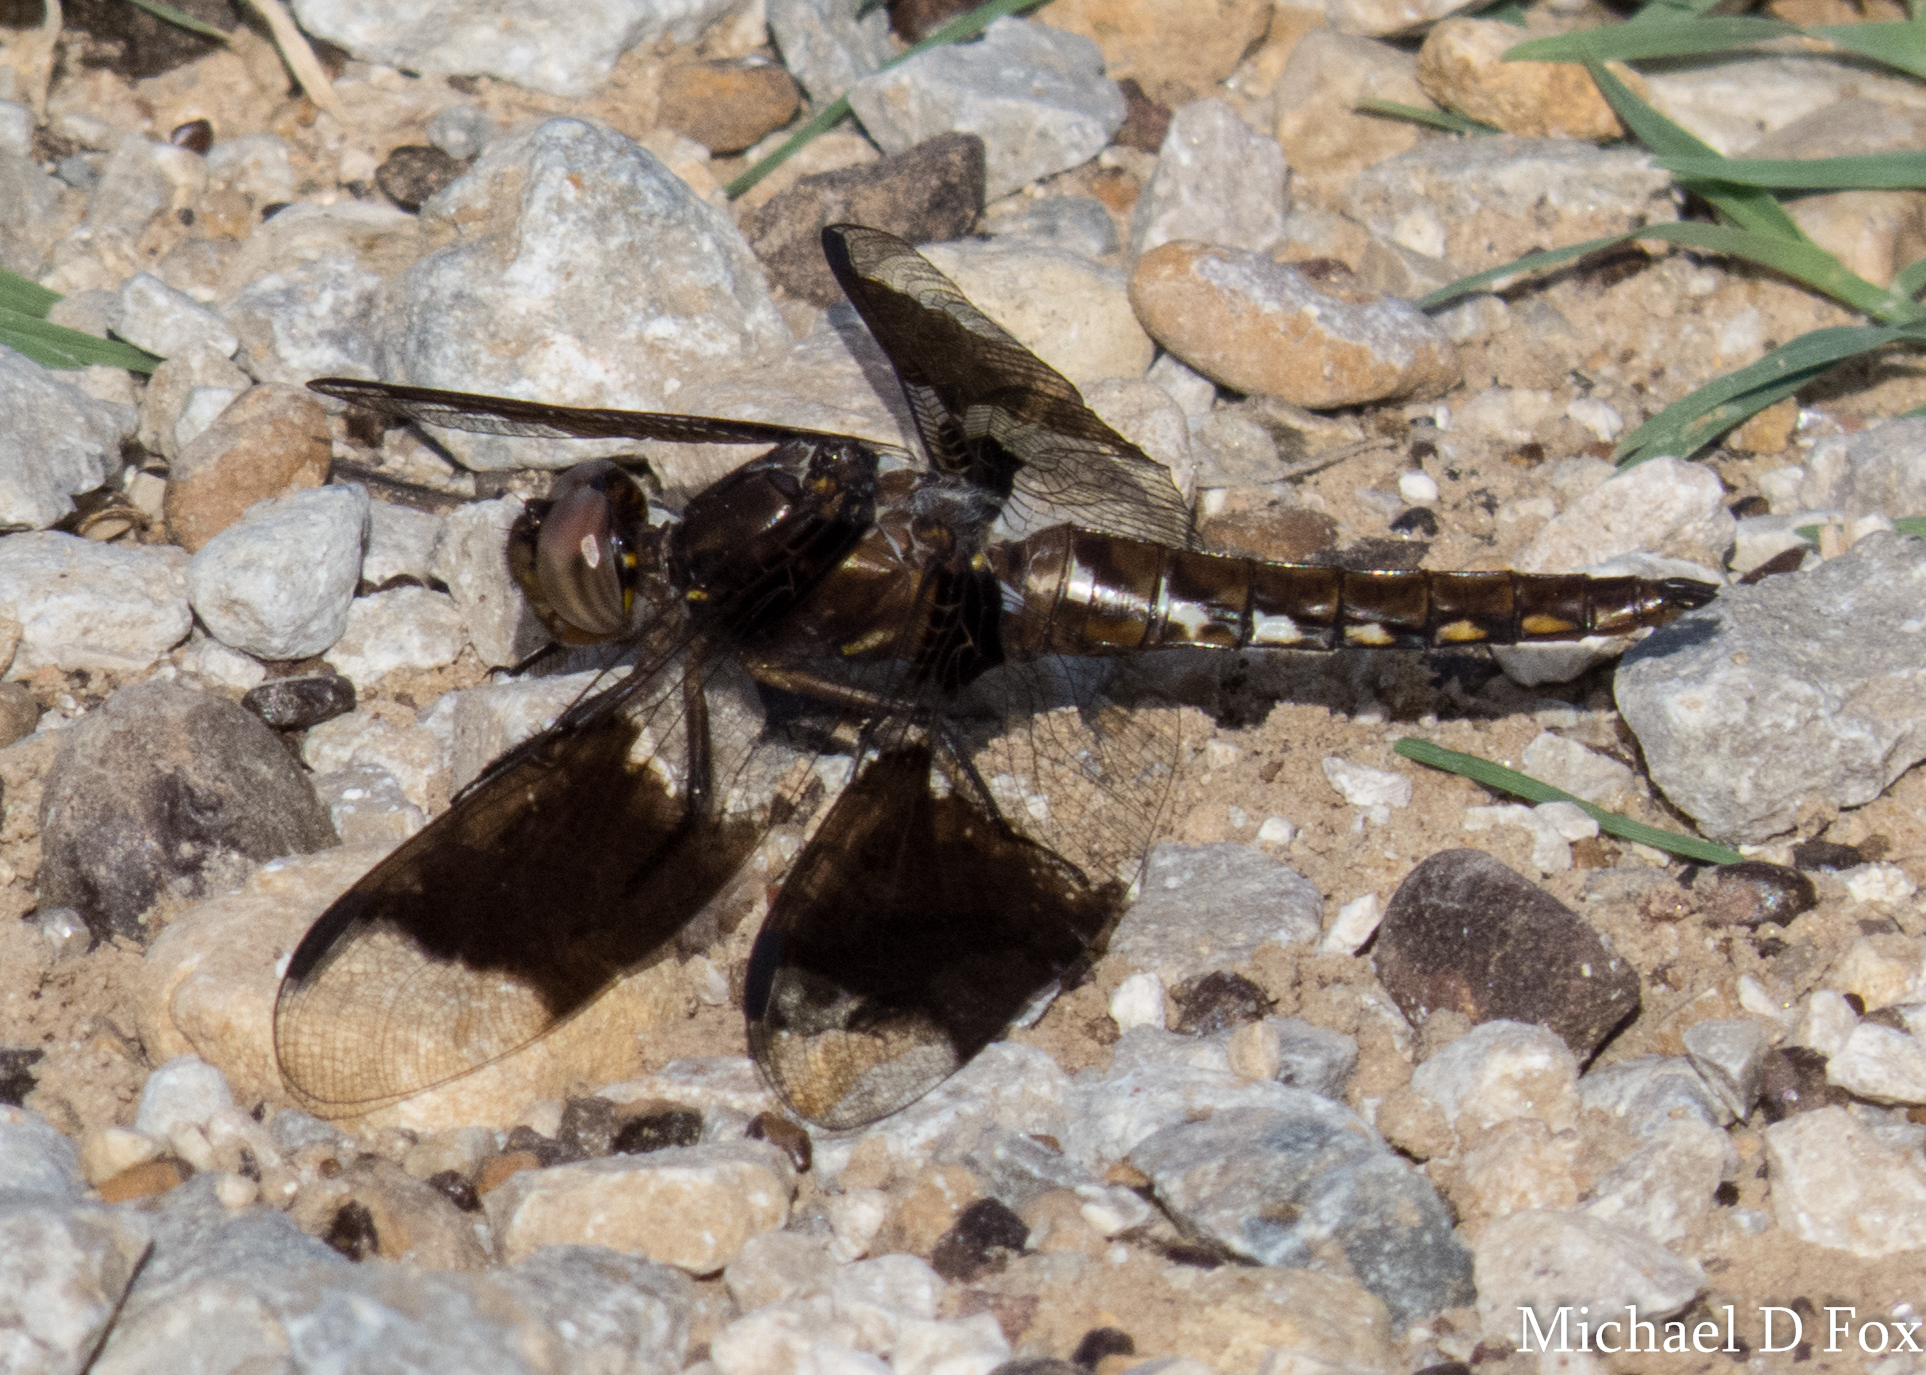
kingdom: Animalia
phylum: Arthropoda
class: Insecta
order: Odonata
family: Libellulidae
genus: Plathemis
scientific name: Plathemis lydia
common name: Common whitetail
